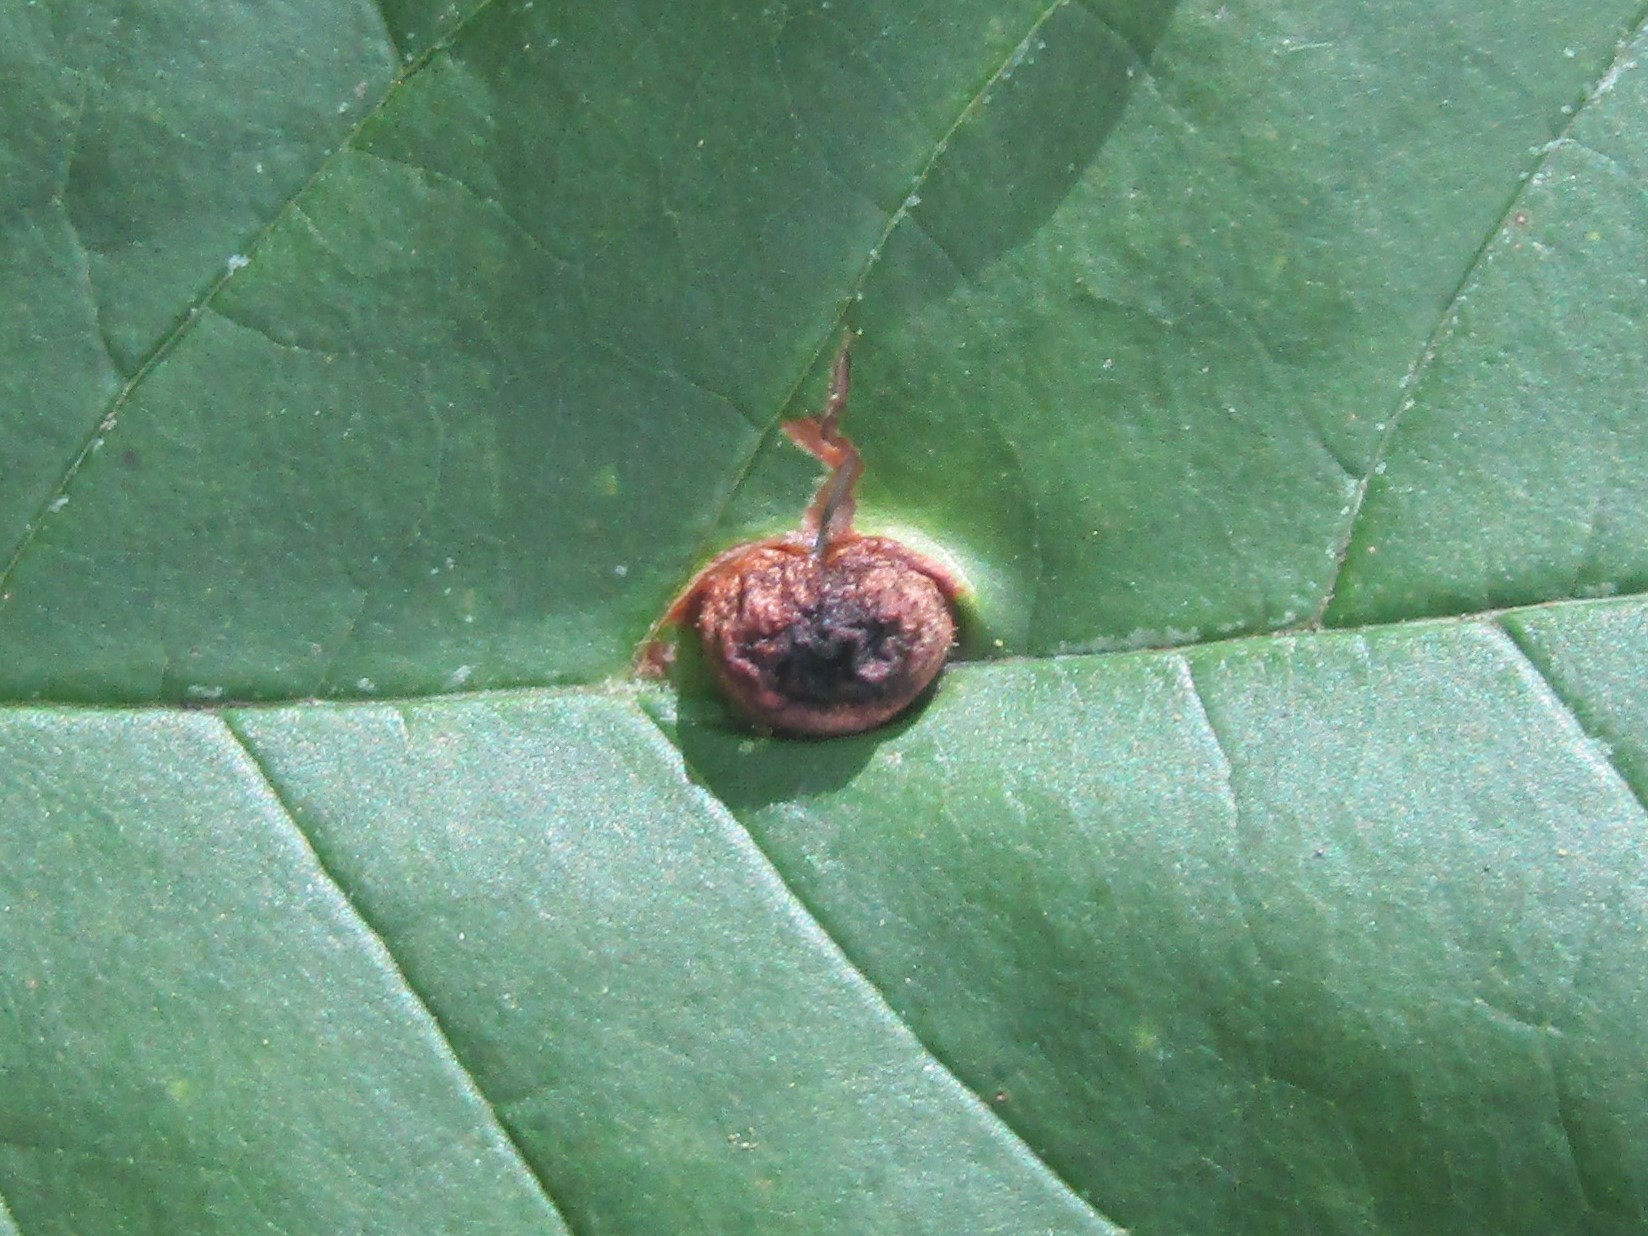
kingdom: Animalia
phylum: Arthropoda
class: Insecta
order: Diptera
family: Cecidomyiidae
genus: Dasineura
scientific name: Dasineura pellex
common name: Ash bullet gall midge
